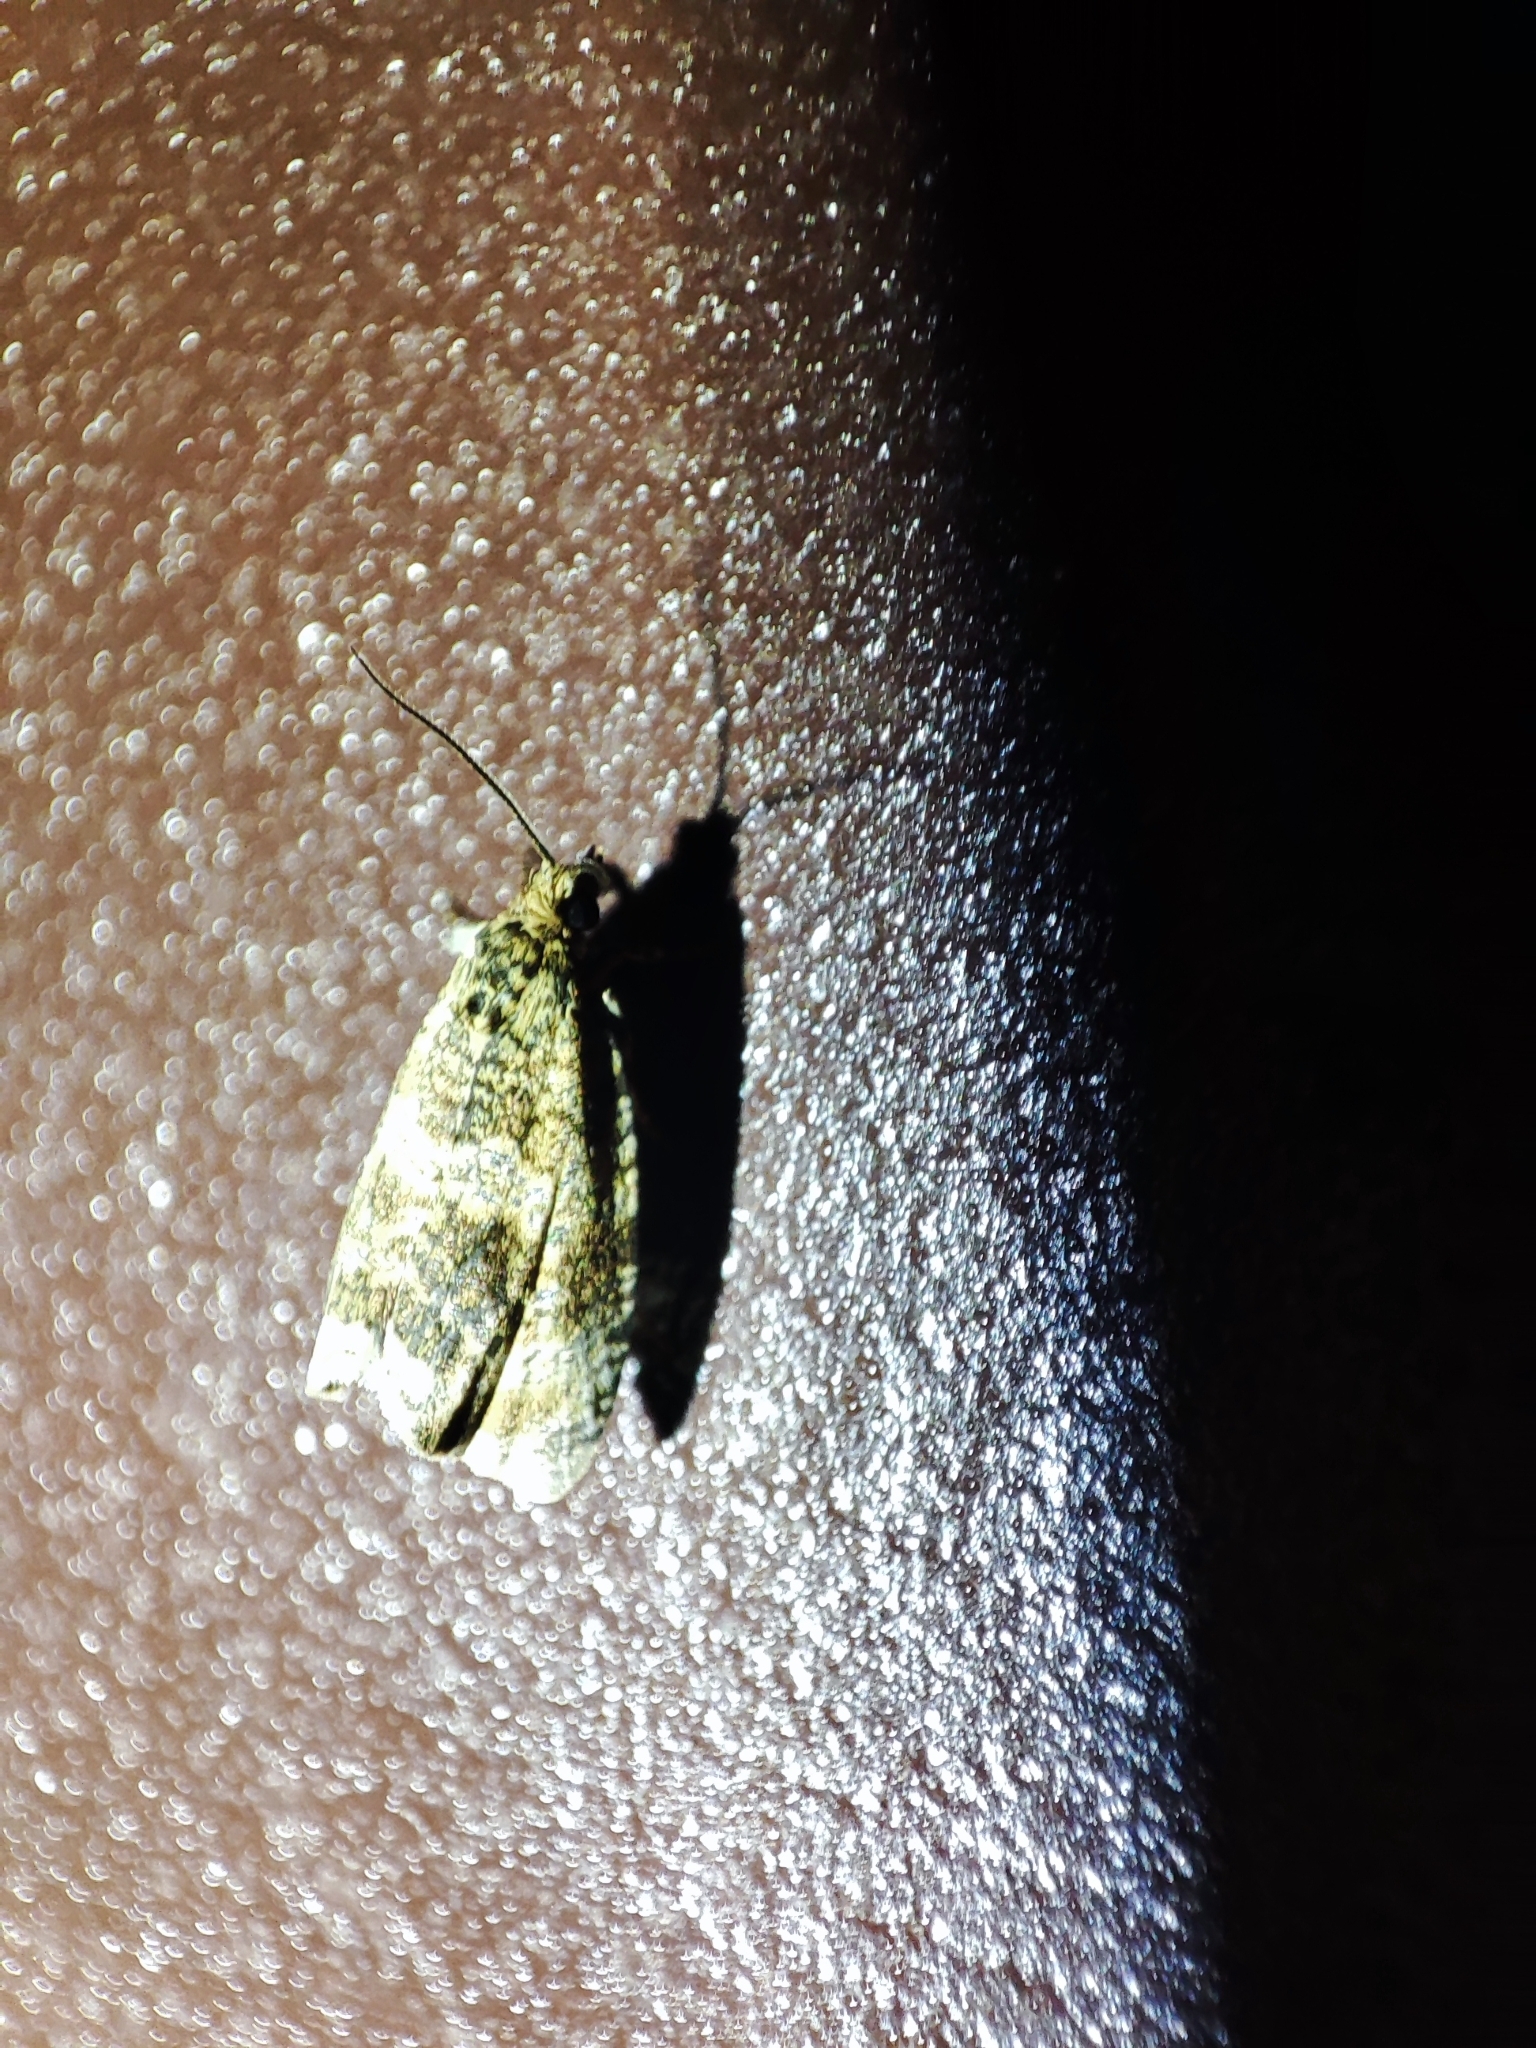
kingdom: Animalia
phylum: Arthropoda
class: Insecta
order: Lepidoptera
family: Tortricidae
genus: Syricoris
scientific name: Syricoris lacunana
